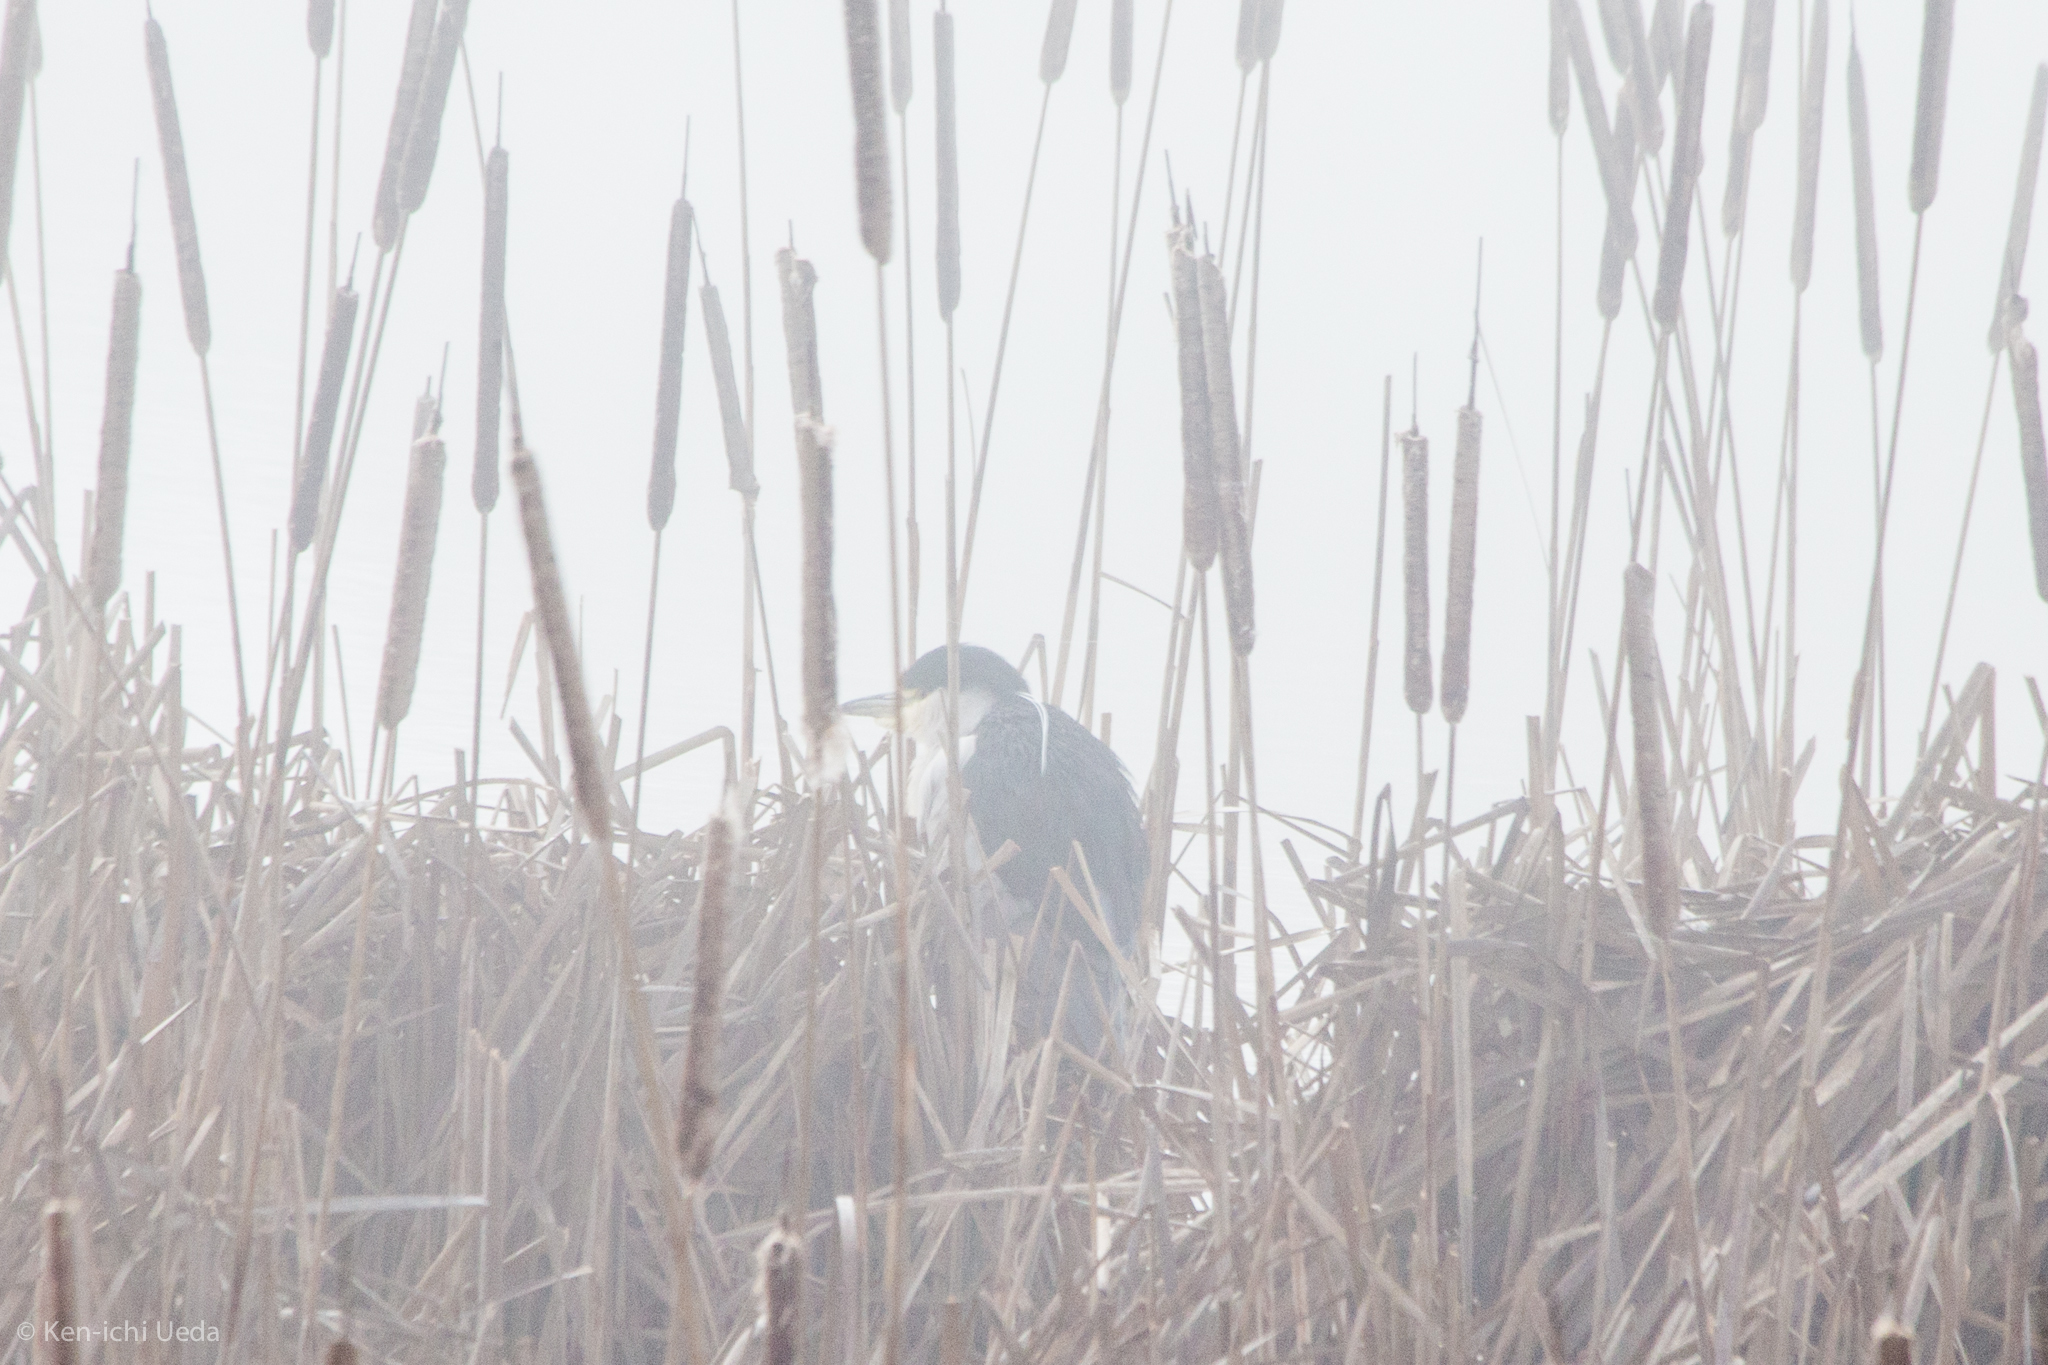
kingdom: Animalia
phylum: Chordata
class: Aves
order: Pelecaniformes
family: Ardeidae
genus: Nycticorax
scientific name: Nycticorax nycticorax
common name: Black-crowned night heron
